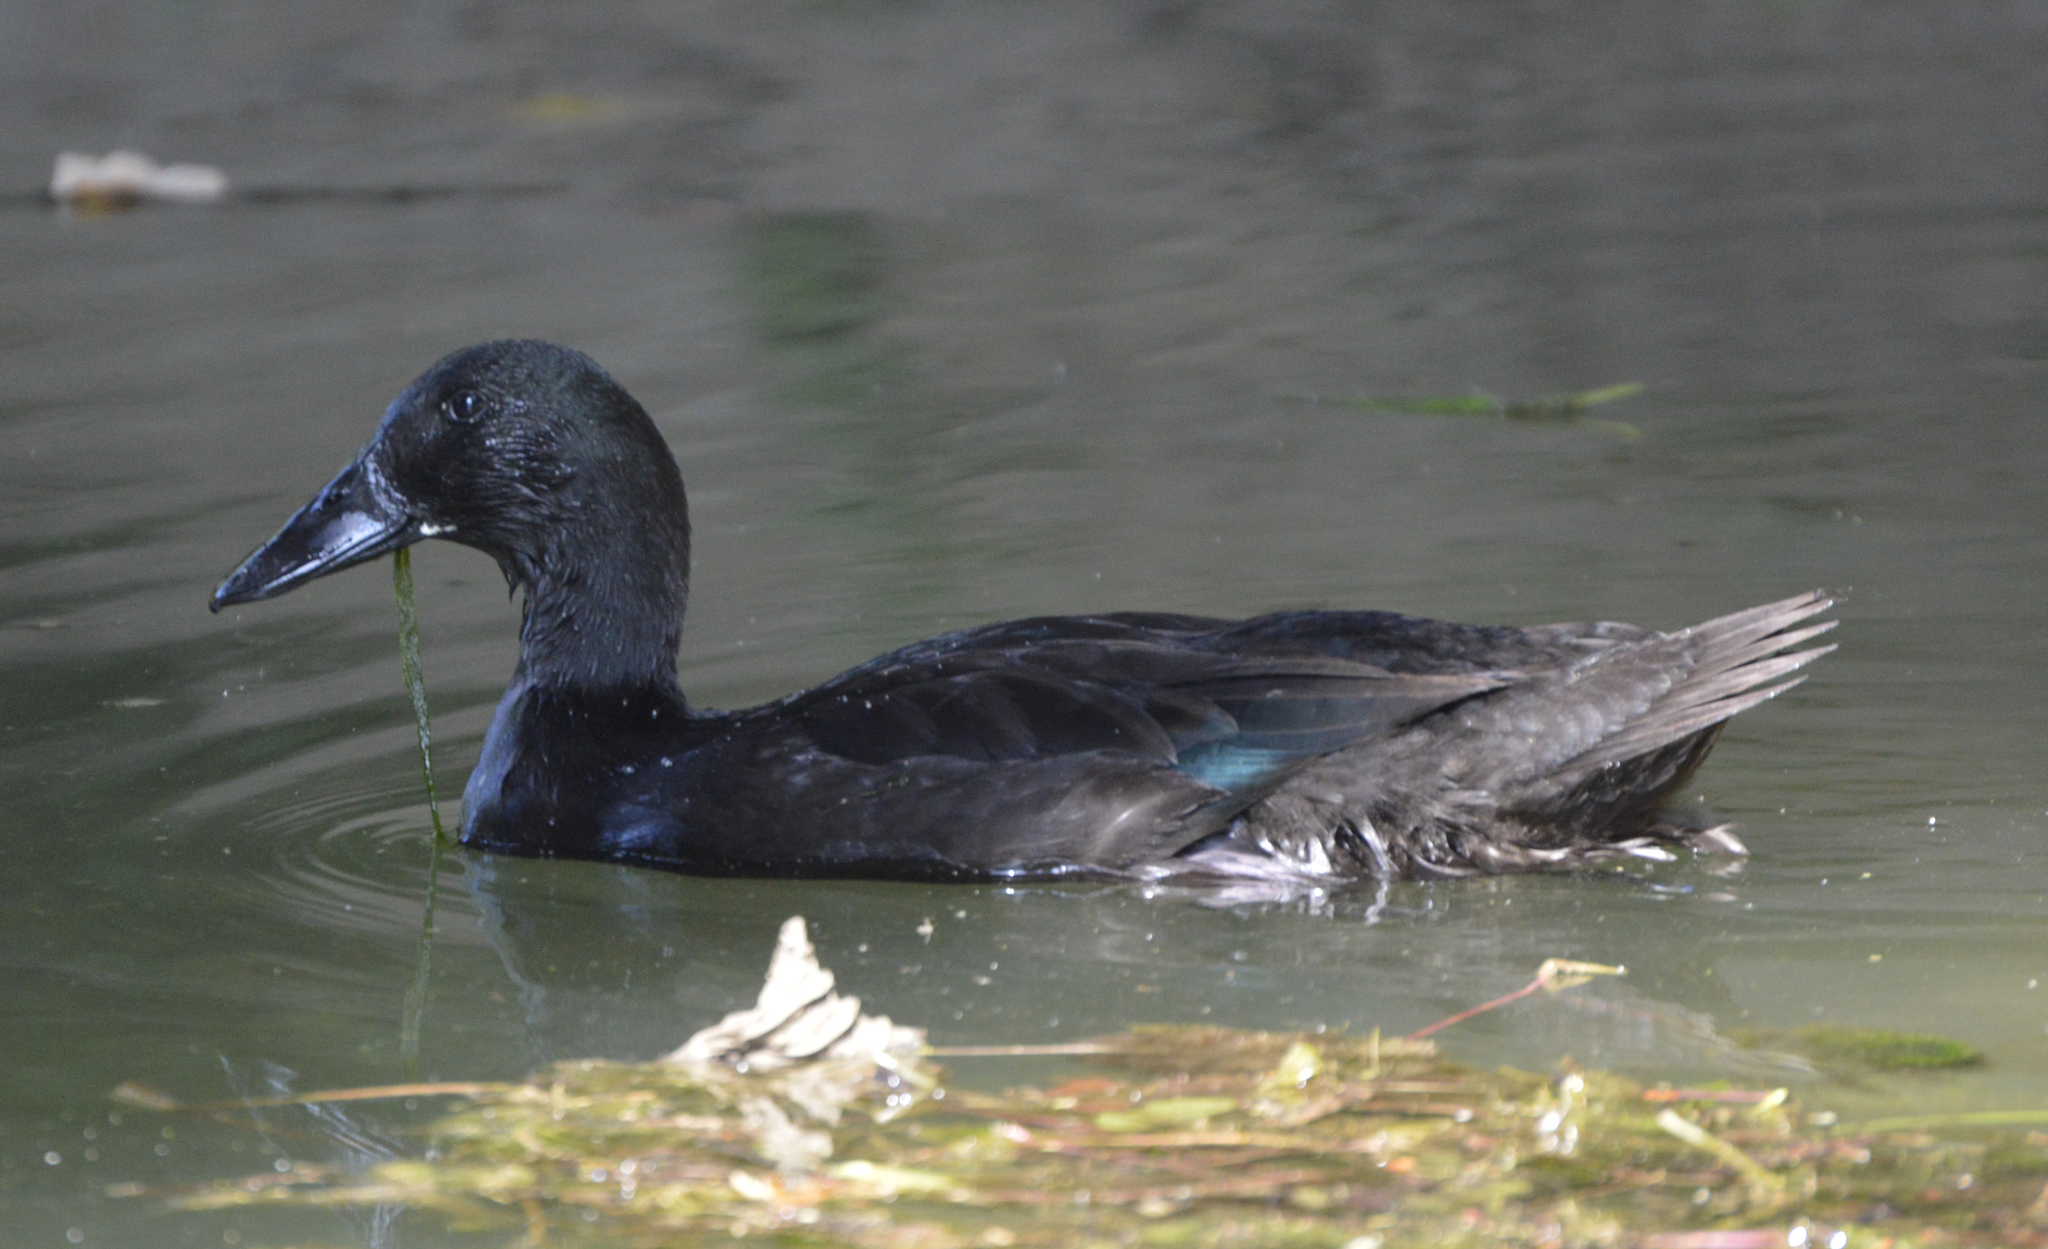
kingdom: Animalia
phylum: Chordata
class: Aves
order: Anseriformes
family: Anatidae
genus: Anas
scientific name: Anas platyrhynchos
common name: Mallard
